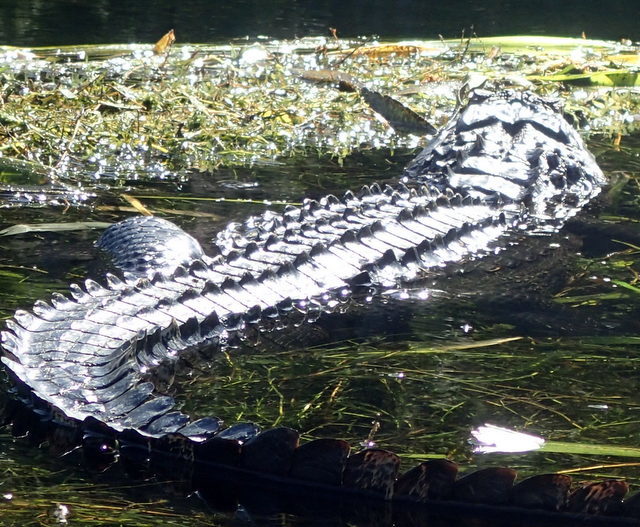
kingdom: Animalia
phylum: Chordata
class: Crocodylia
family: Alligatoridae
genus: Alligator
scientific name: Alligator mississippiensis
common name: American alligator
